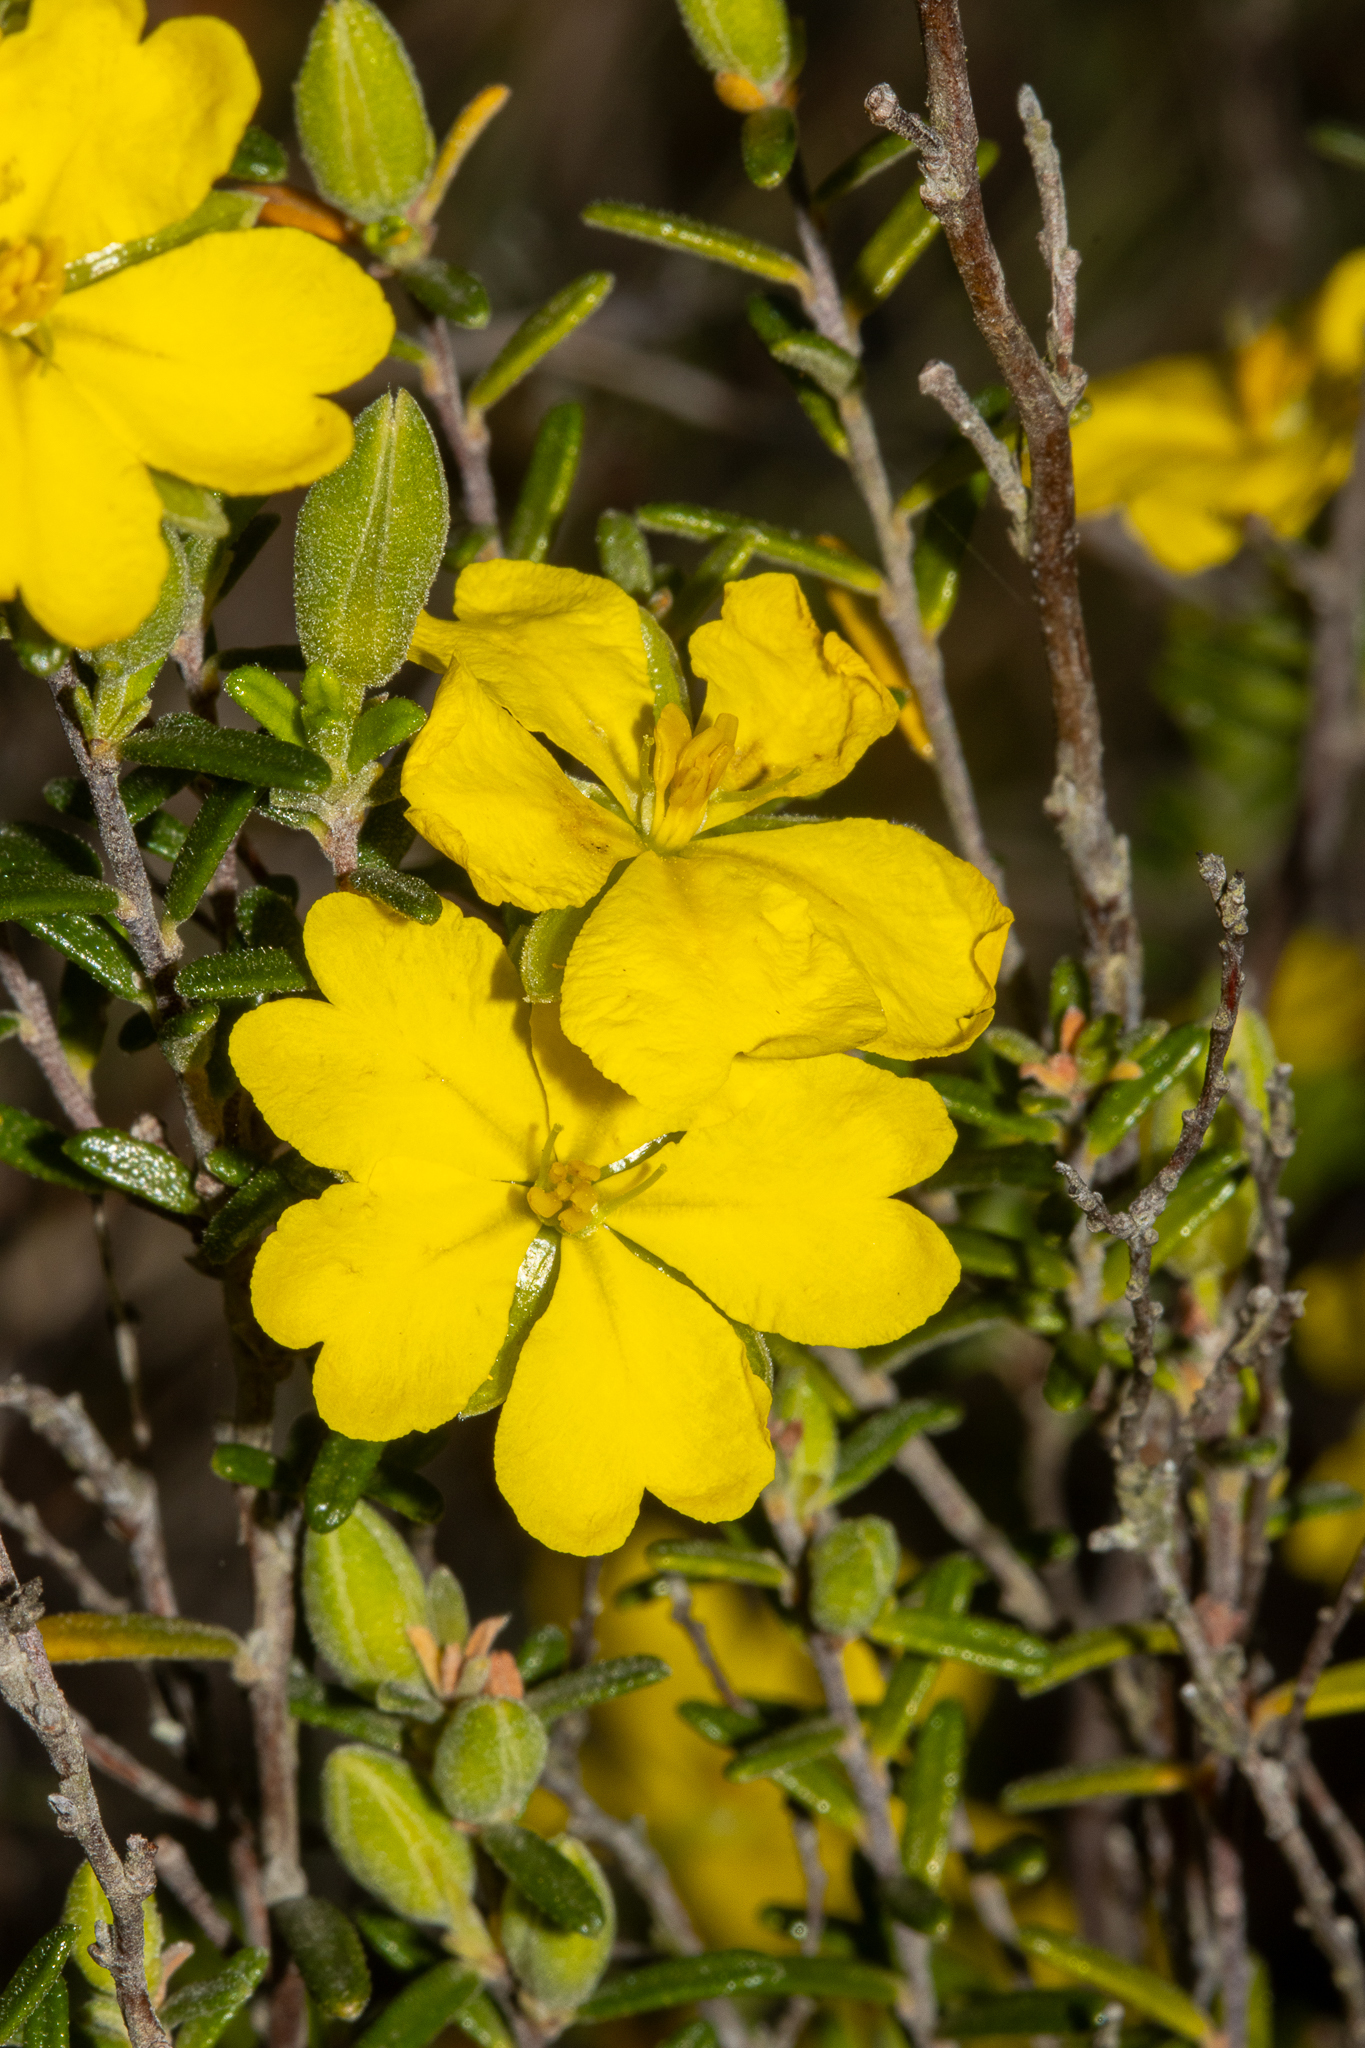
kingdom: Plantae
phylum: Tracheophyta
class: Magnoliopsida
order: Dilleniales
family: Dilleniaceae
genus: Hibbertia
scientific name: Hibbertia australis
